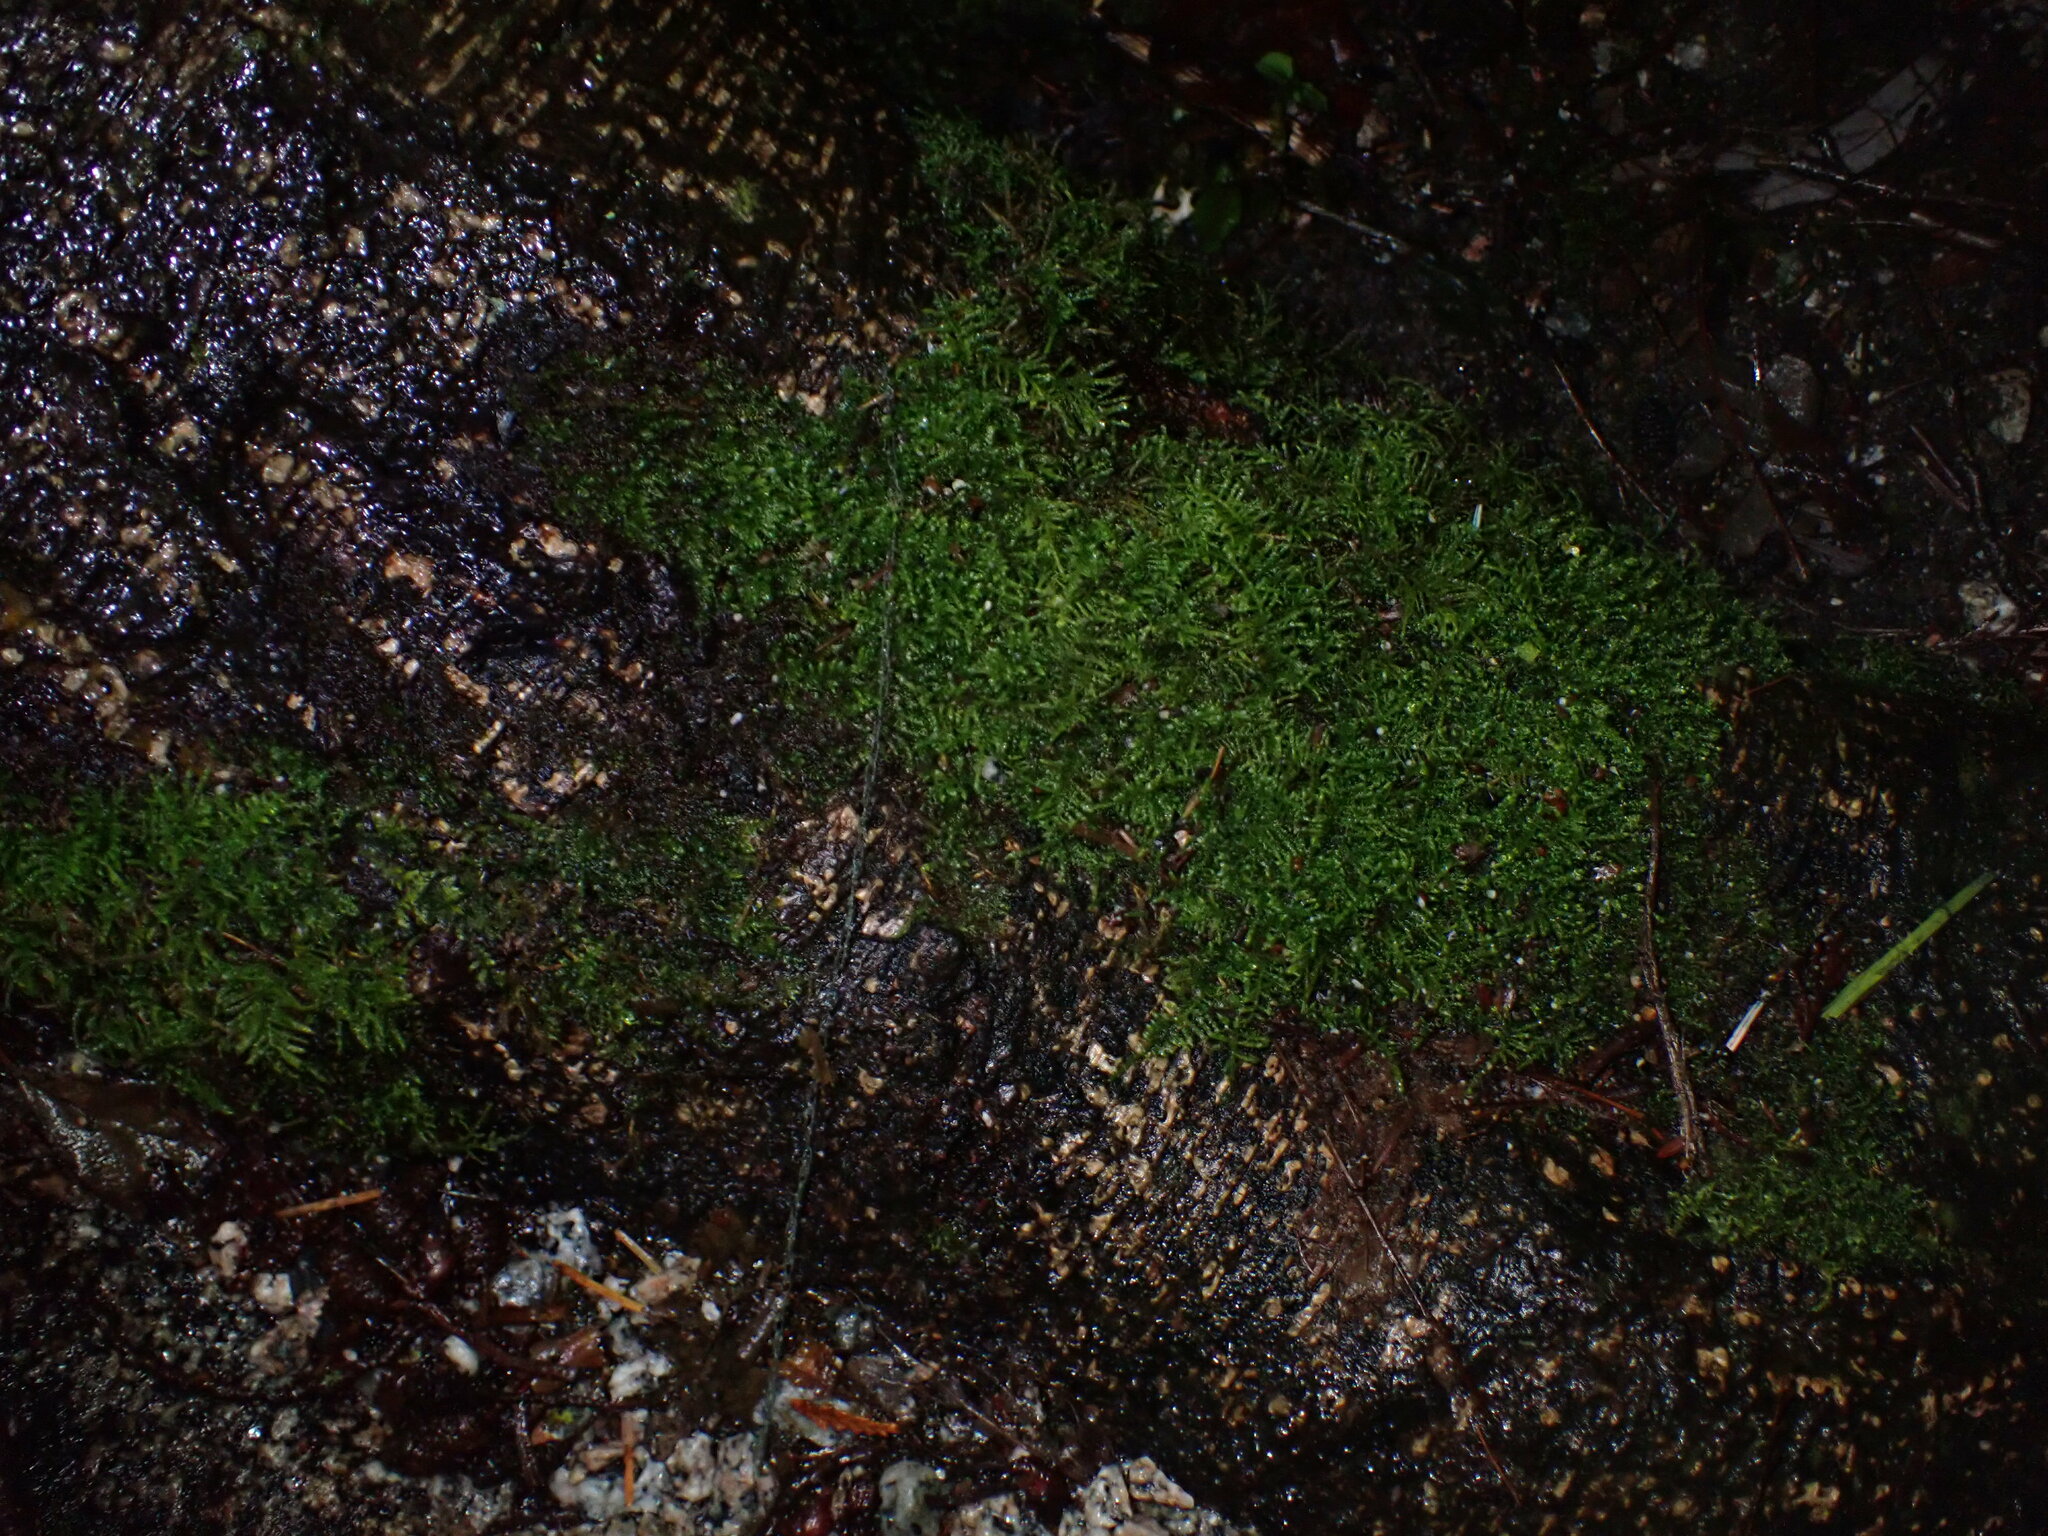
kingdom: Plantae
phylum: Bryophyta
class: Bryopsida
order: Hypnales
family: Brachytheciaceae
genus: Kindbergia
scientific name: Kindbergia oregana
